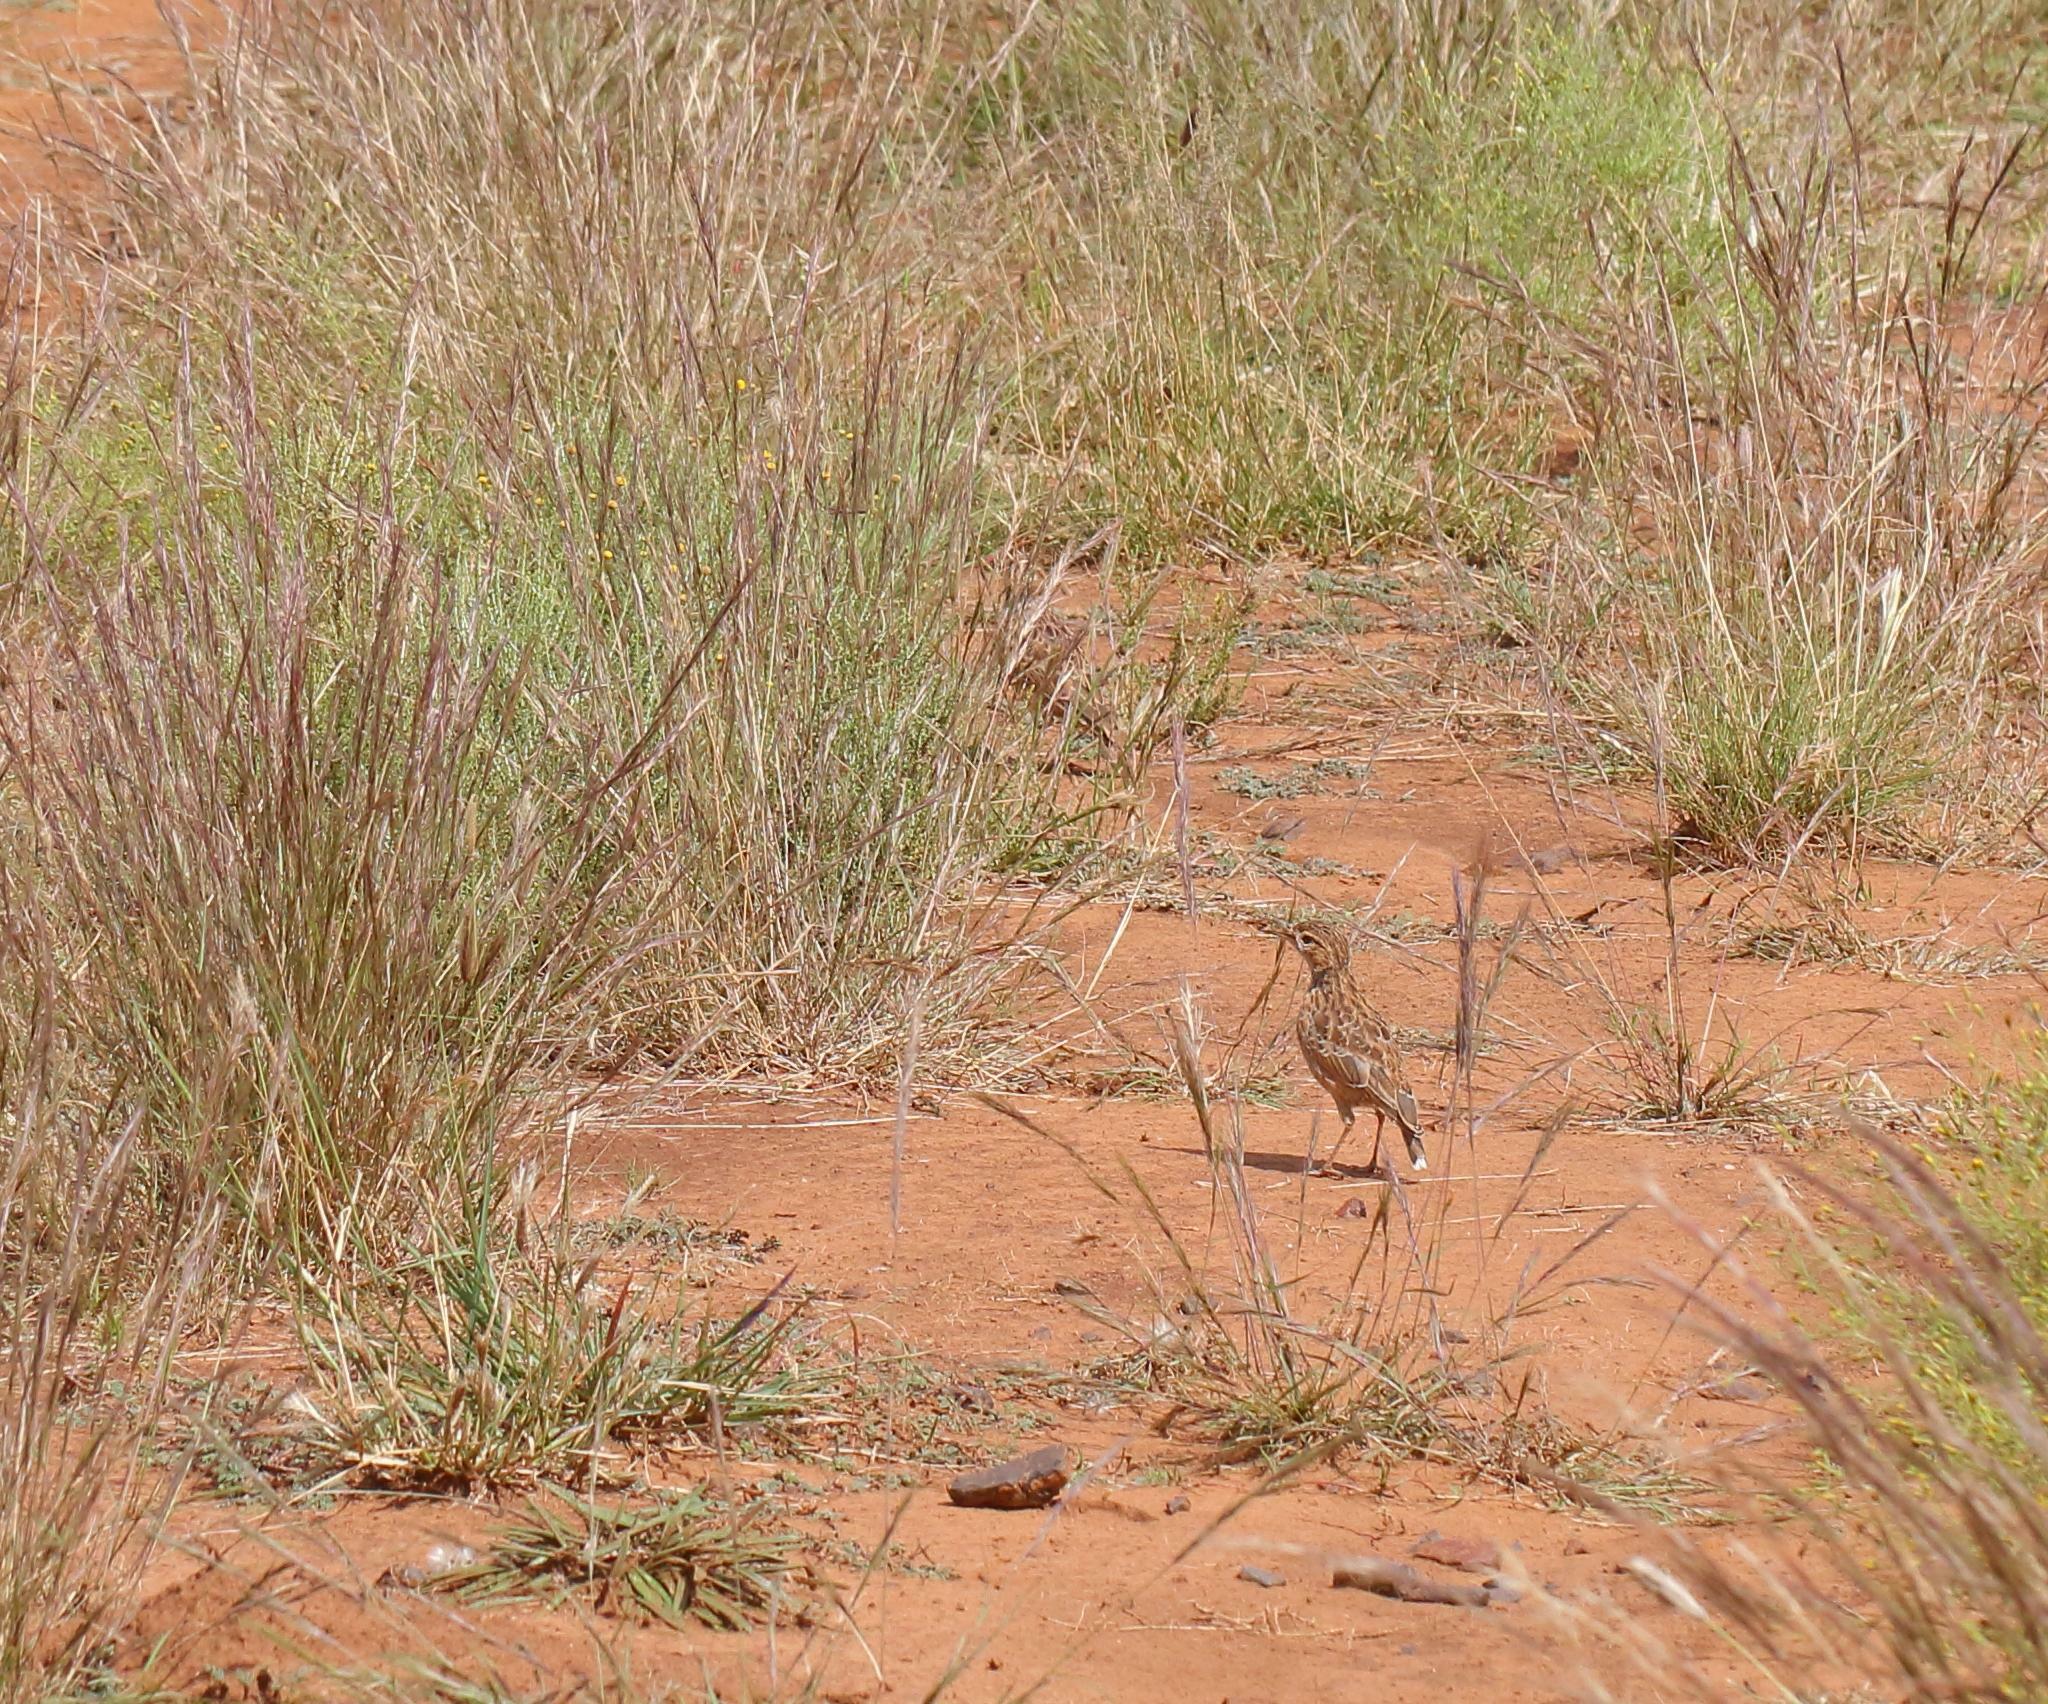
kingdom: Animalia
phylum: Chordata
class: Aves
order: Passeriformes
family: Alaudidae
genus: Chersomanes
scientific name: Chersomanes albofasciata
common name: Spike-heeled lark
